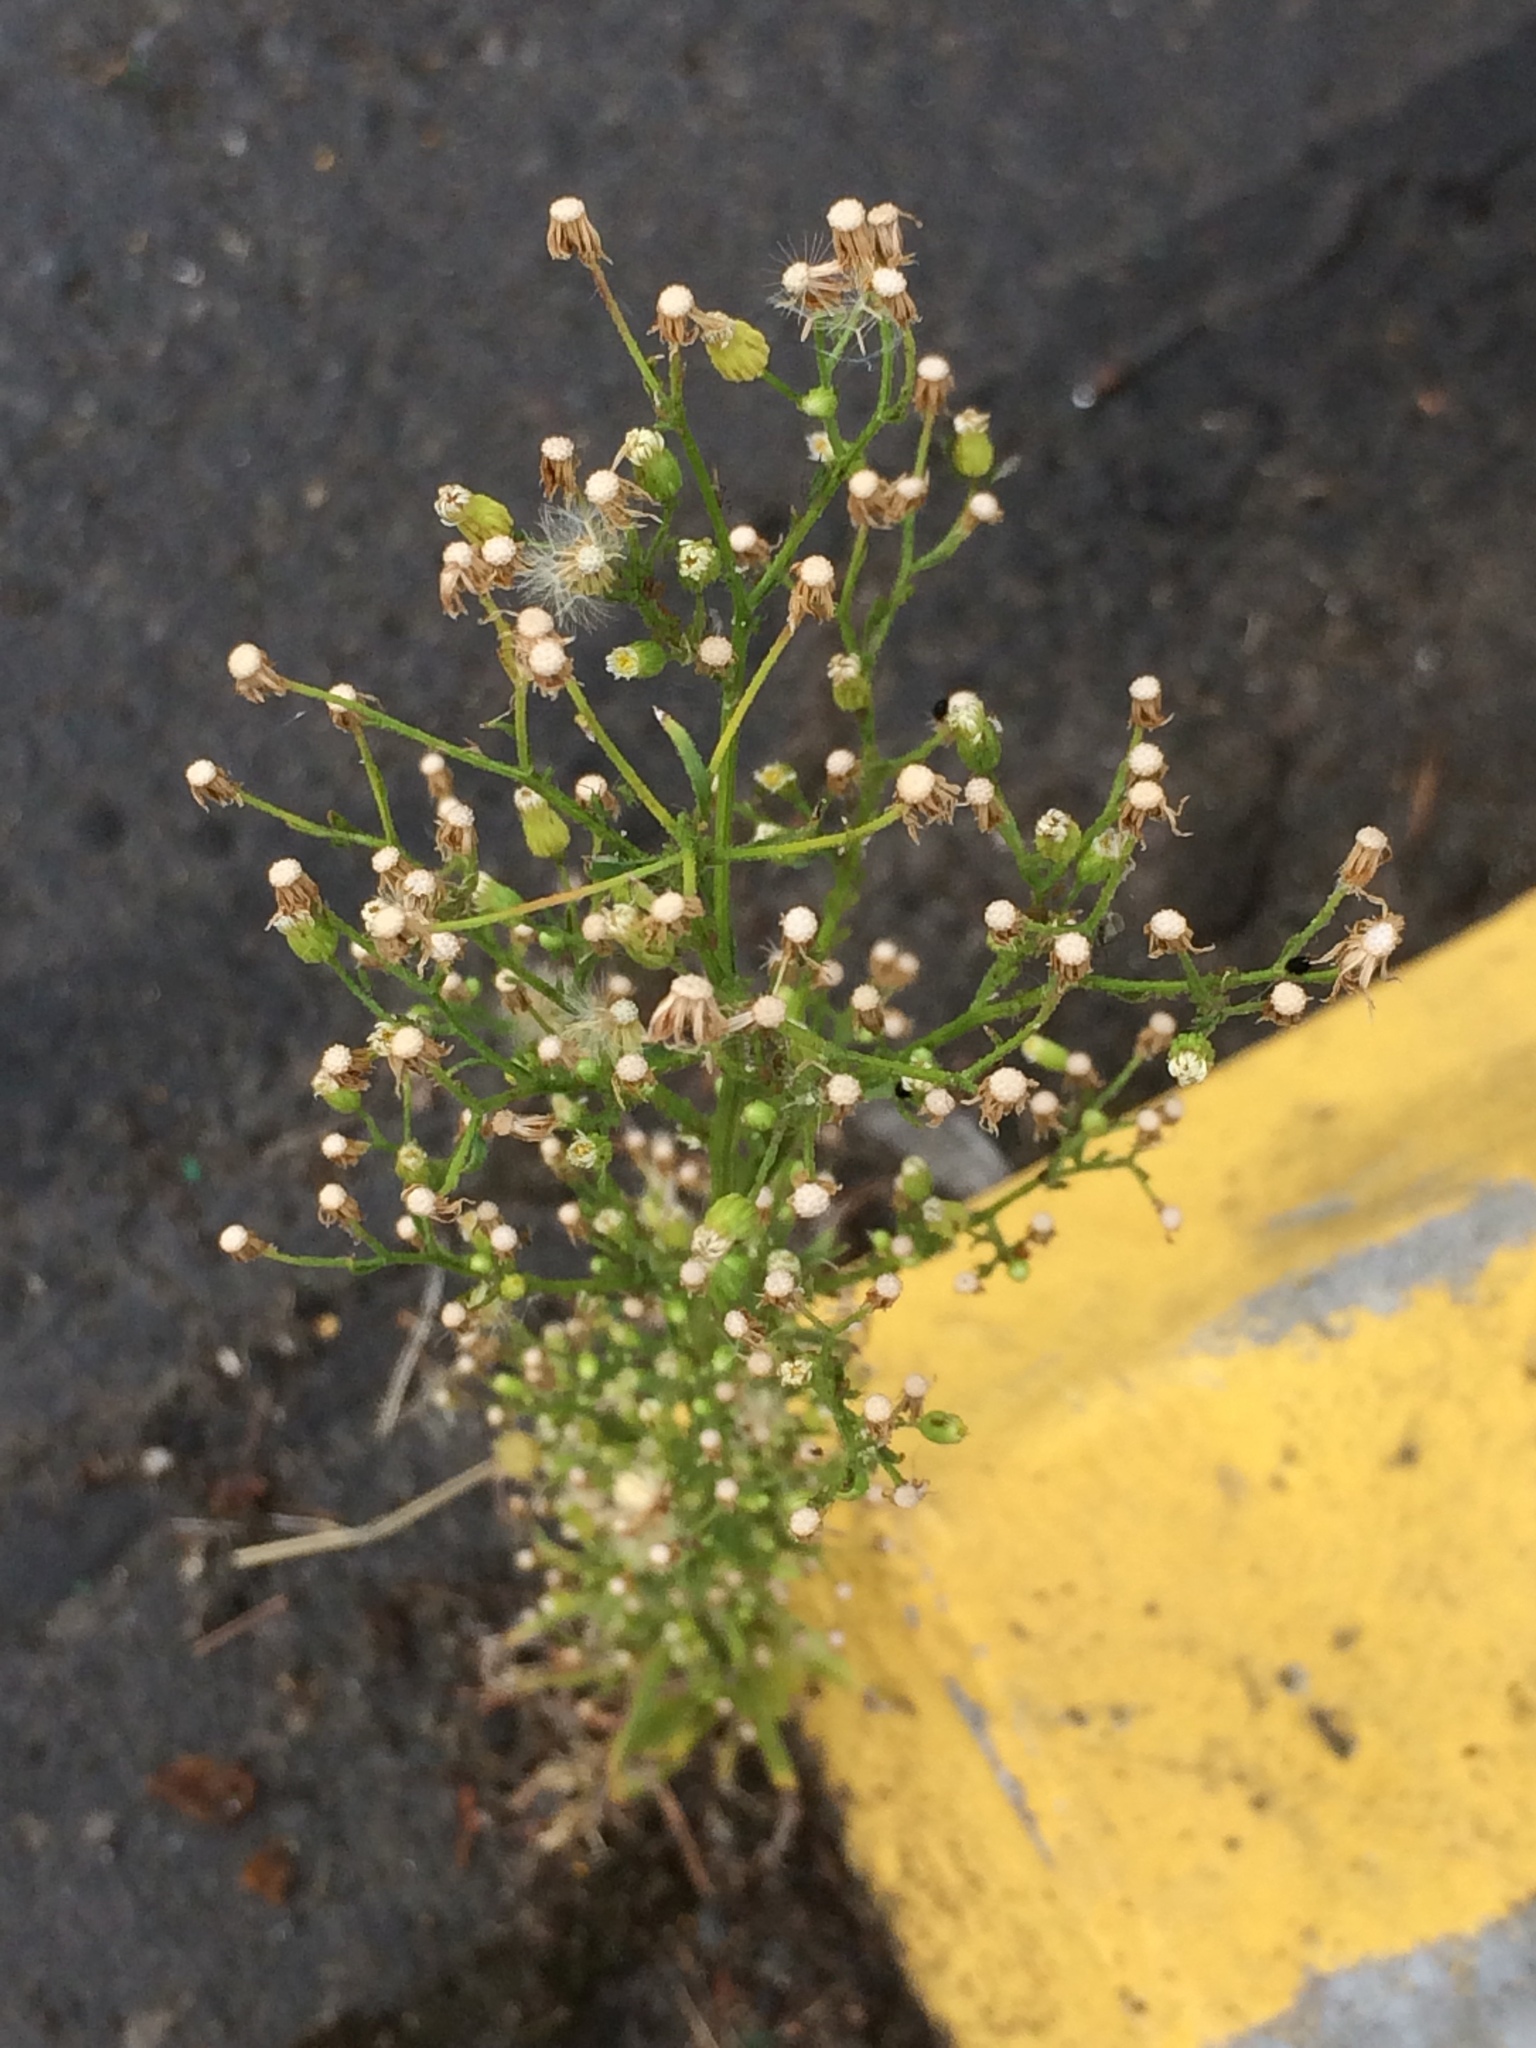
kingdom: Plantae
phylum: Tracheophyta
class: Magnoliopsida
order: Asterales
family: Asteraceae
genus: Erigeron
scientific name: Erigeron canadensis
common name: Canadian fleabane
